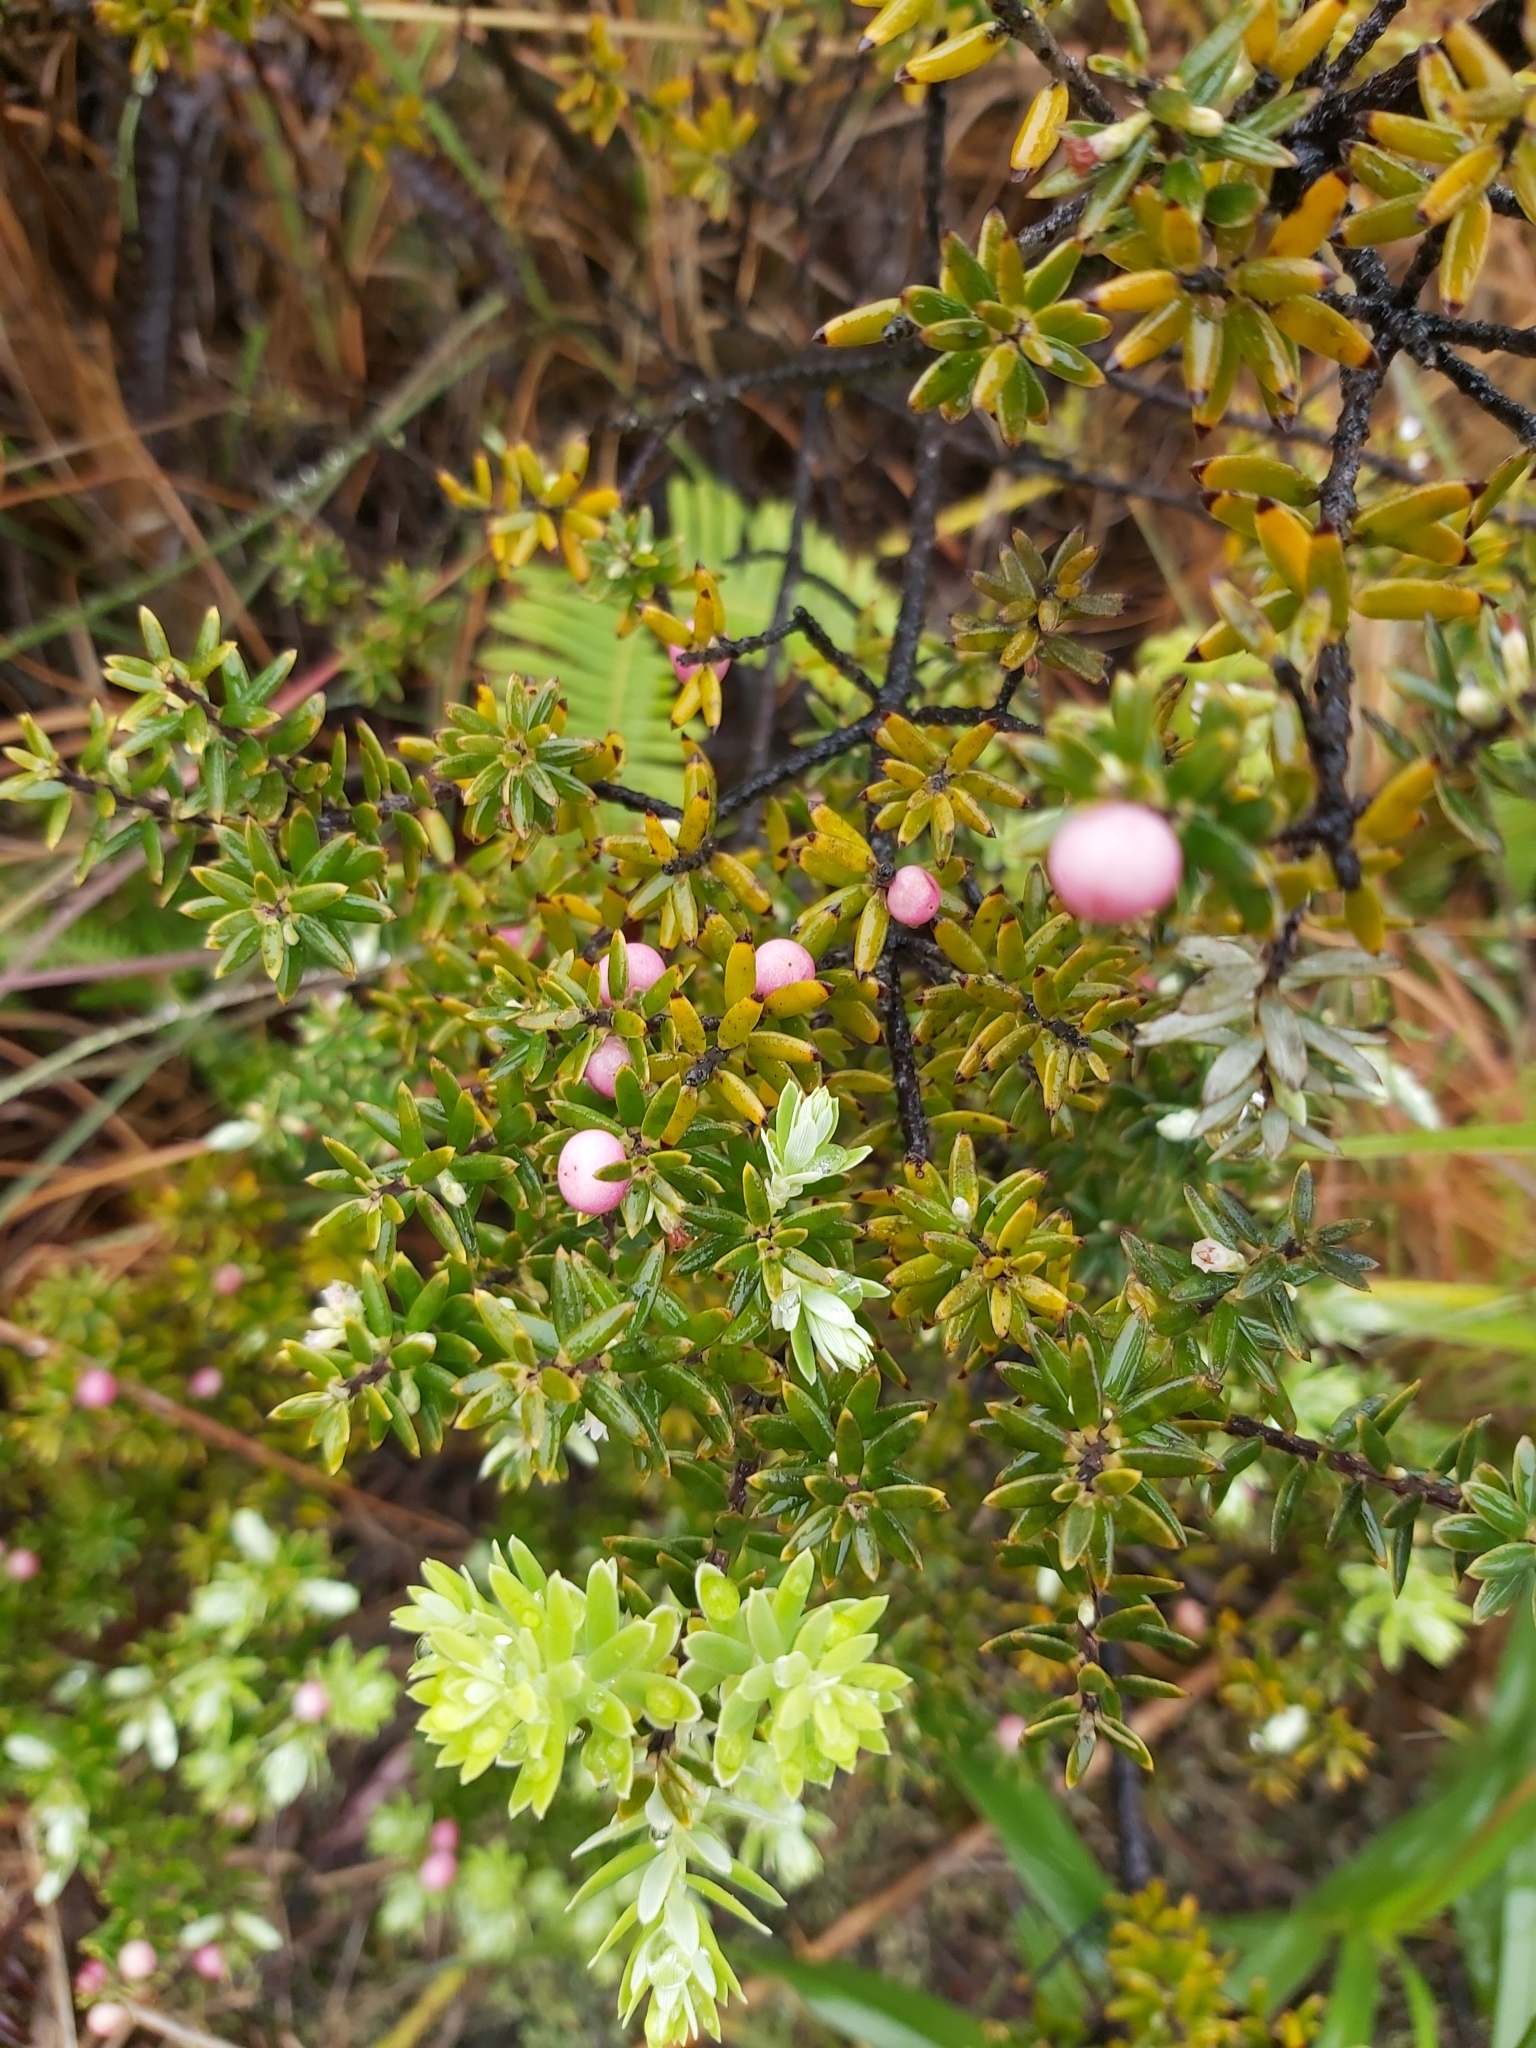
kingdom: Plantae
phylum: Tracheophyta
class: Magnoliopsida
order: Ericales
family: Ericaceae
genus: Leptecophylla
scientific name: Leptecophylla tameiameiae
